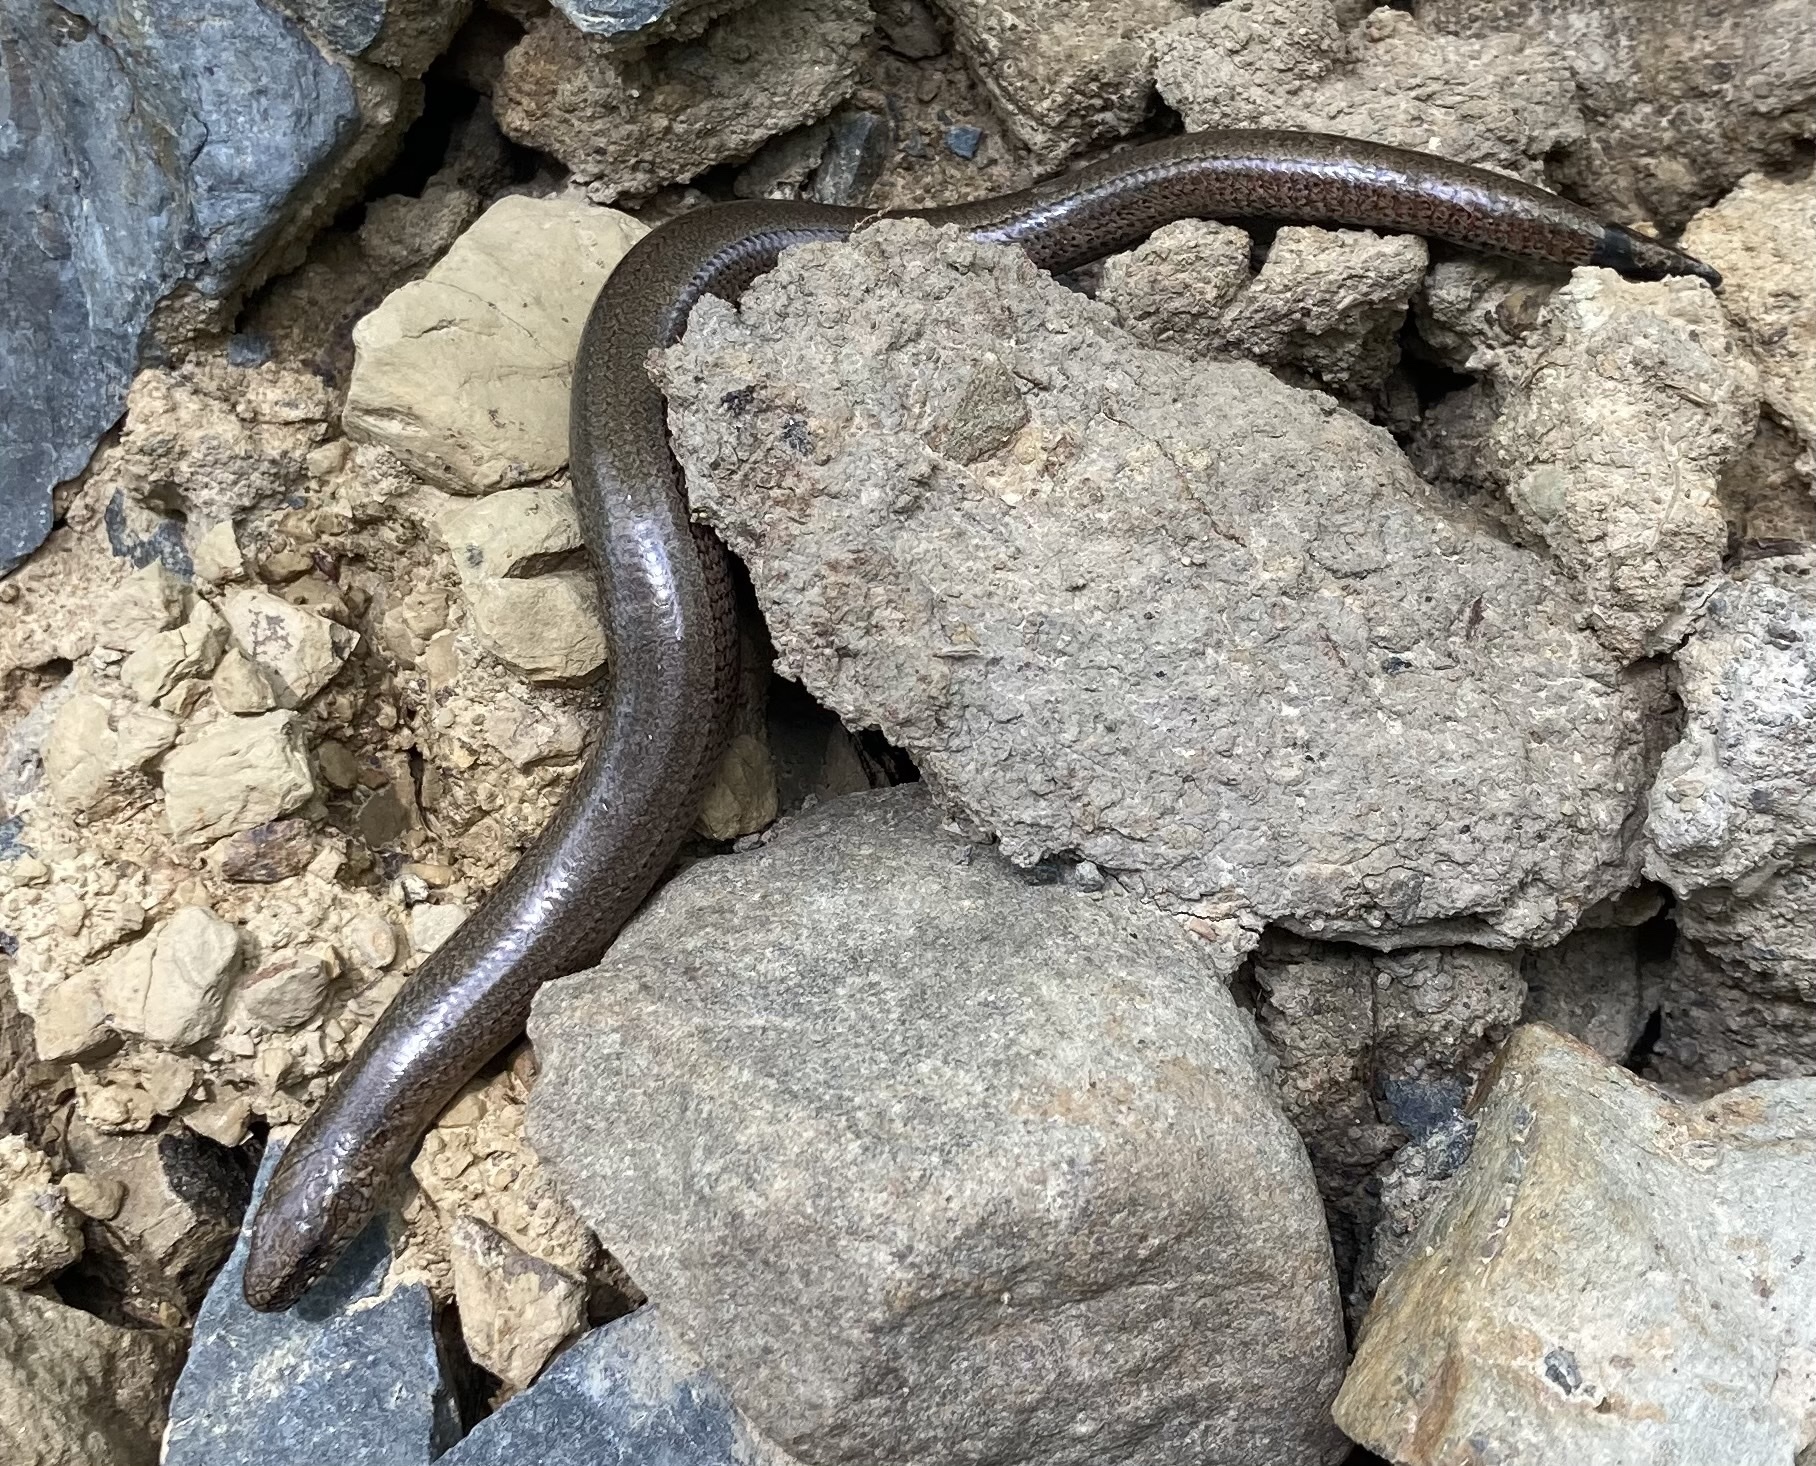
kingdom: Animalia
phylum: Chordata
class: Squamata
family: Anguidae
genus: Anguis
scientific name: Anguis fragilis
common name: Slow worm
